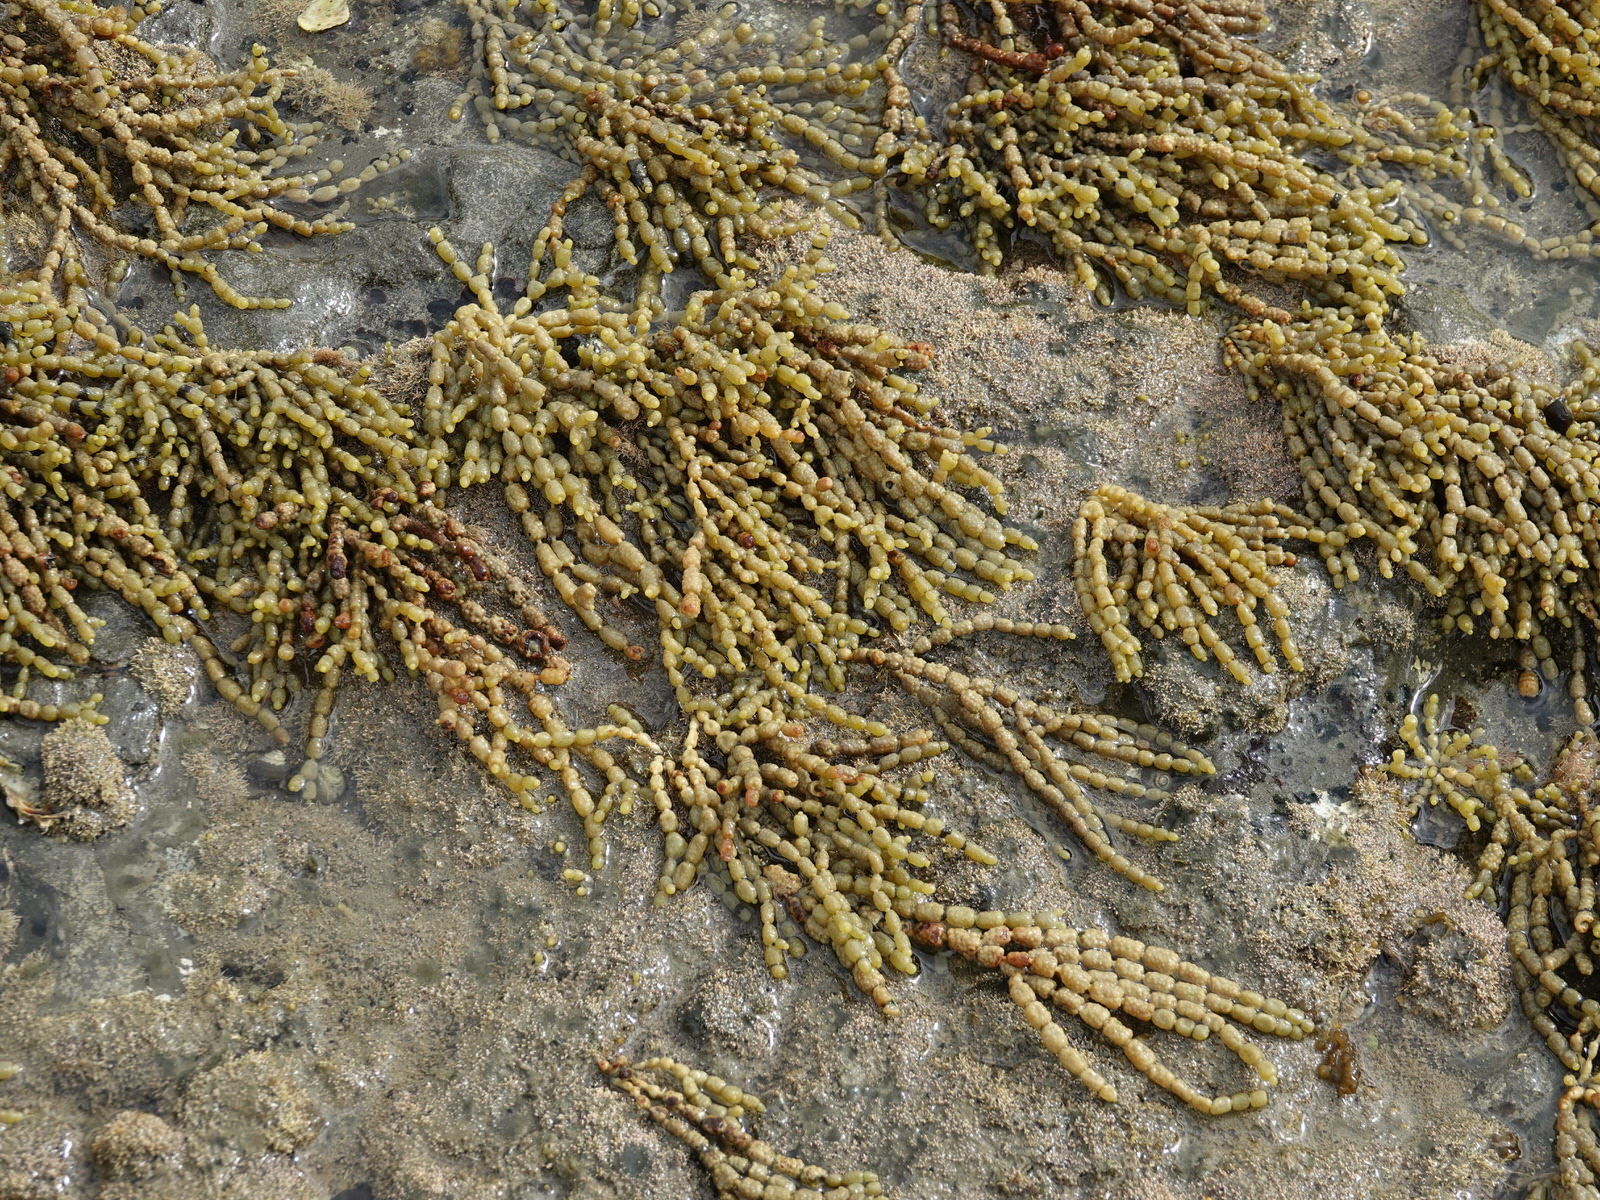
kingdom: Chromista
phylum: Ochrophyta
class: Phaeophyceae
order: Fucales
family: Hormosiraceae
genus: Hormosira
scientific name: Hormosira banksii
